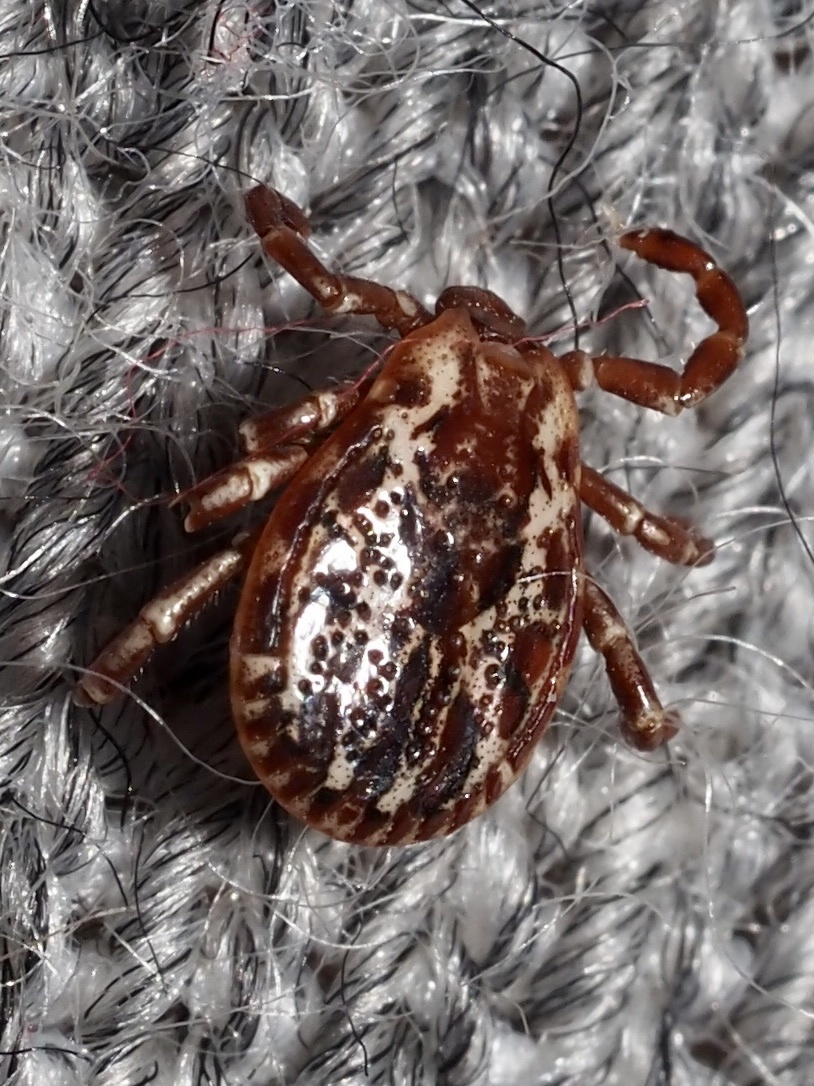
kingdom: Animalia
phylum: Arthropoda
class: Arachnida
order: Ixodida
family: Ixodidae
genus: Dermacentor
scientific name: Dermacentor variabilis
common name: American dog tick
